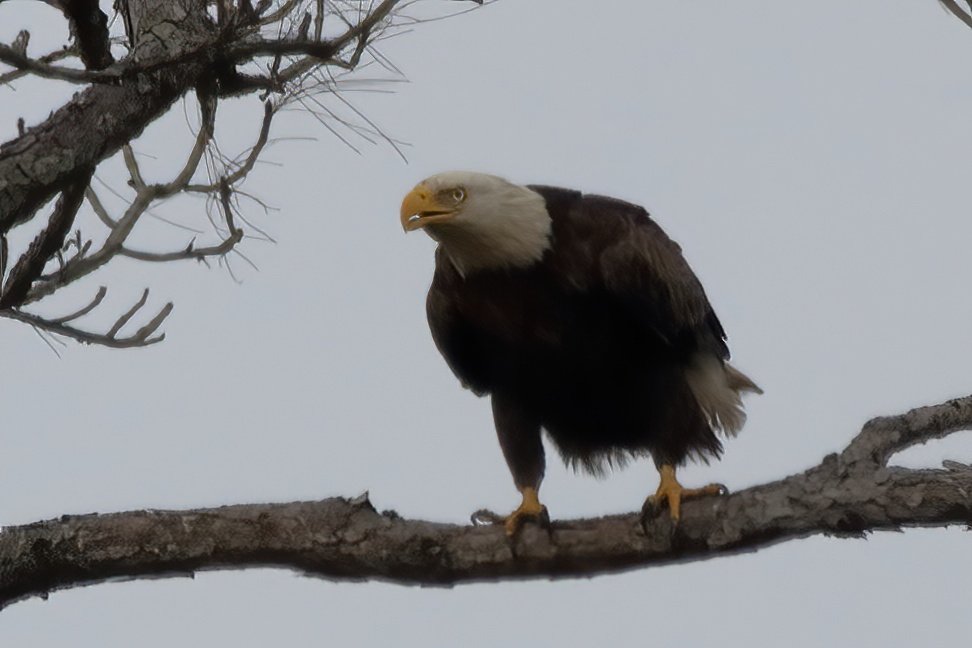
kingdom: Animalia
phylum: Chordata
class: Aves
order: Accipitriformes
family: Accipitridae
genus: Haliaeetus
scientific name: Haliaeetus leucocephalus
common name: Bald eagle
